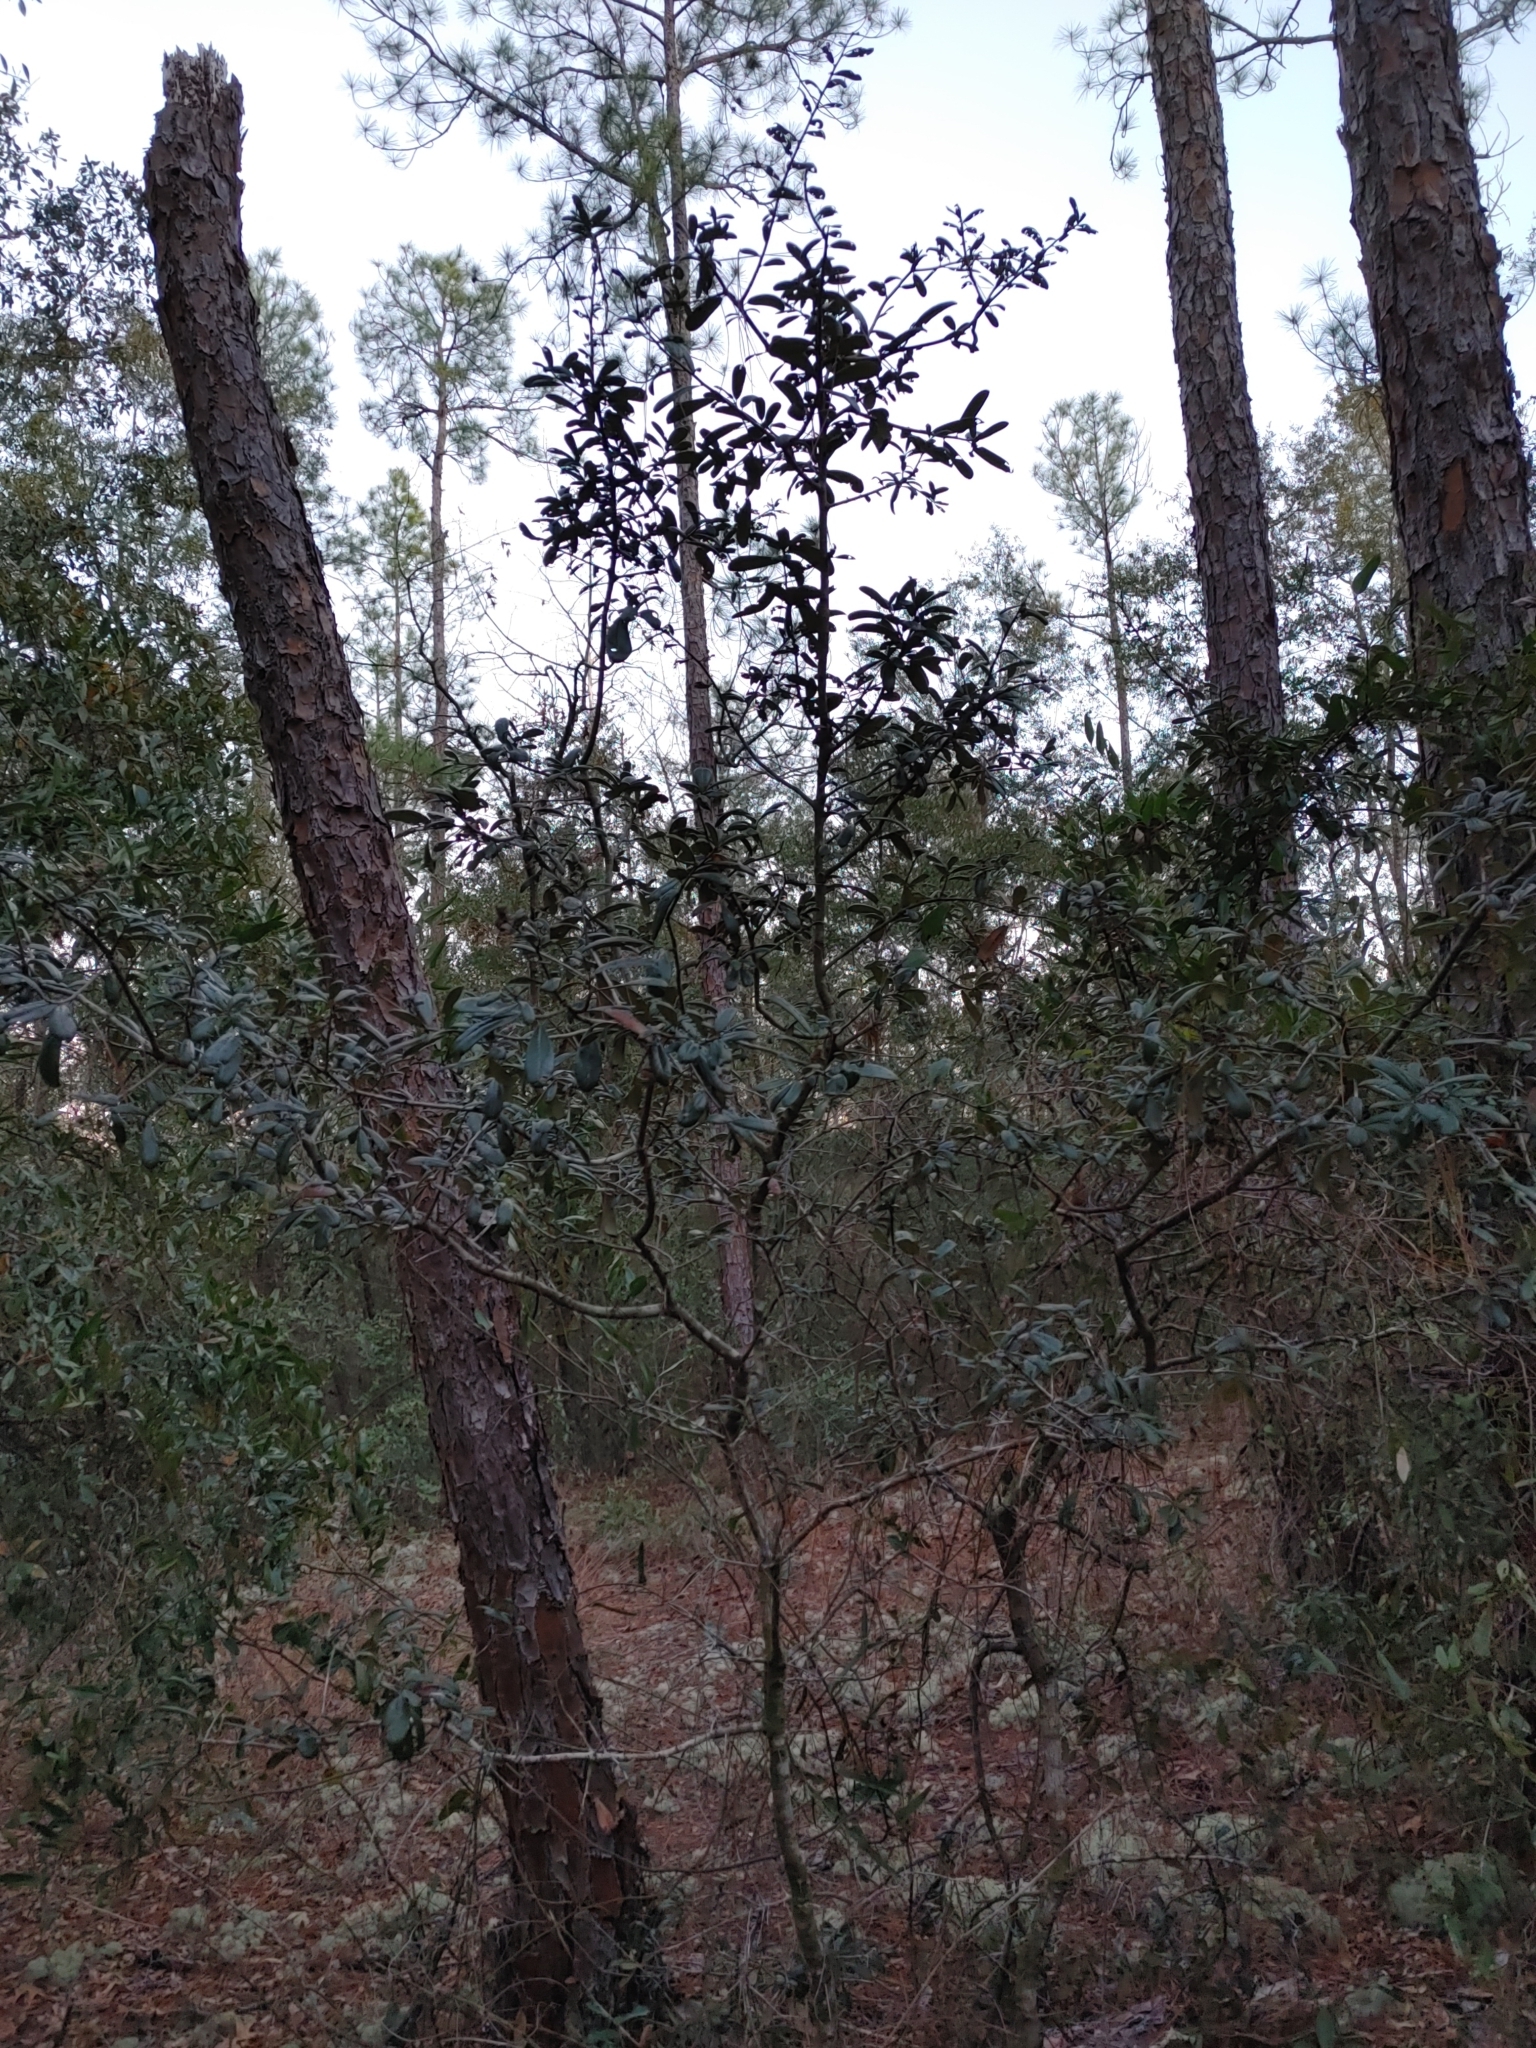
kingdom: Plantae
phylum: Tracheophyta
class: Magnoliopsida
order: Fagales
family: Fagaceae
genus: Quercus
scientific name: Quercus geminata
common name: Sand live oak
